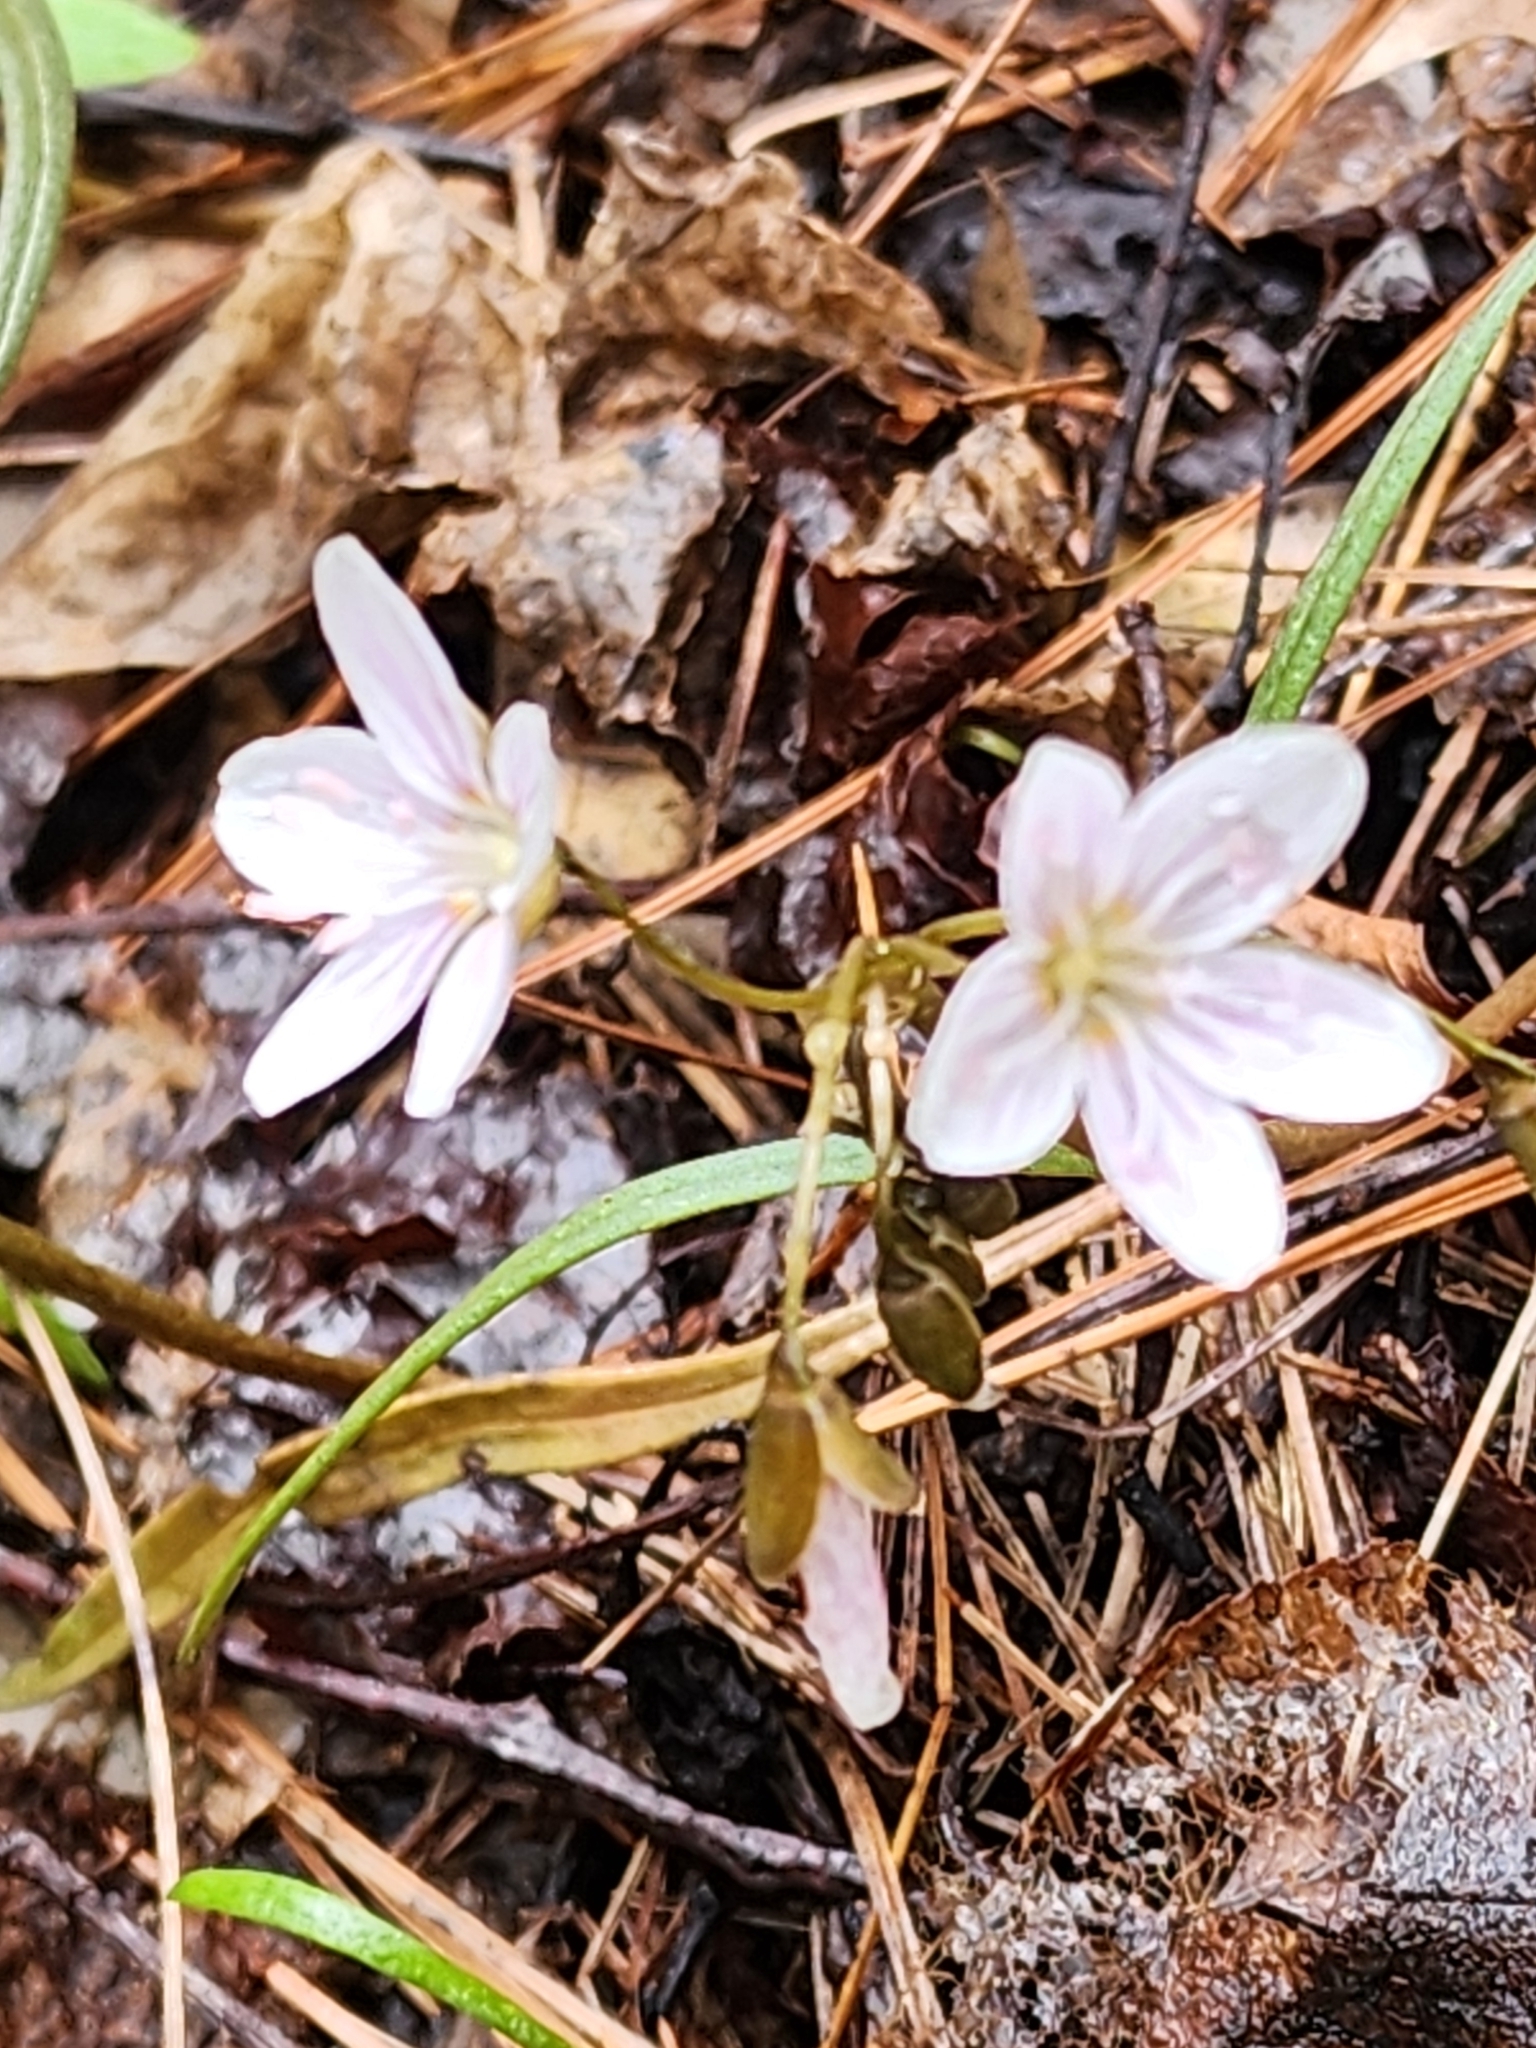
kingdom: Plantae
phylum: Tracheophyta
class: Magnoliopsida
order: Caryophyllales
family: Montiaceae
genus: Claytonia
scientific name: Claytonia virginica
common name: Virginia springbeauty
